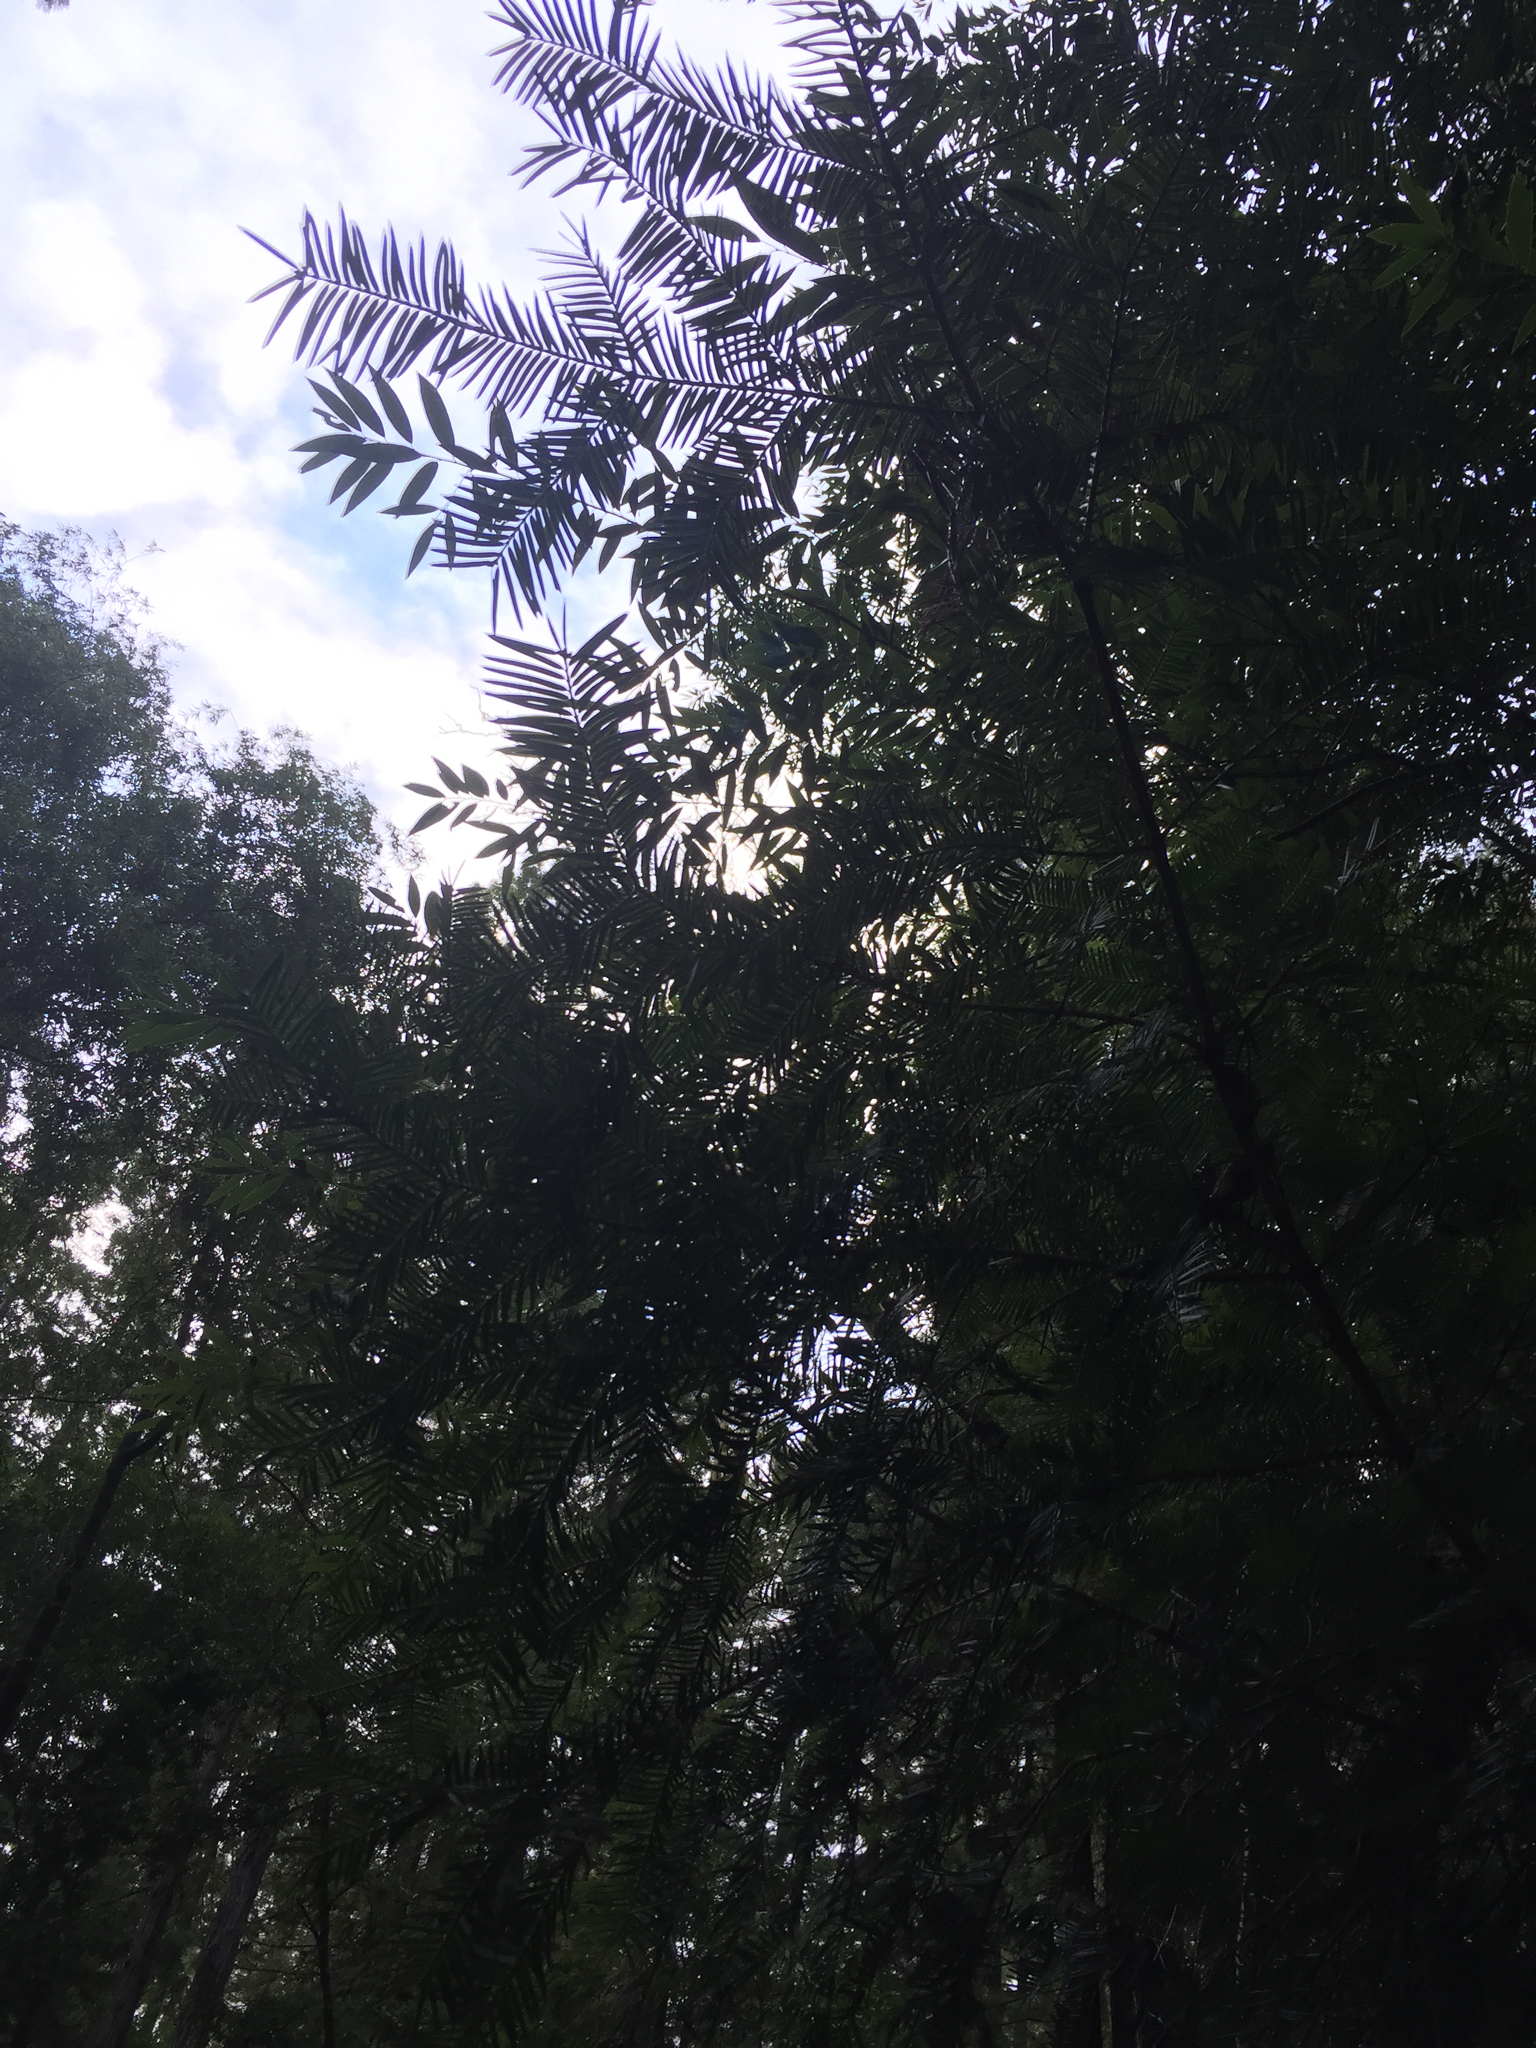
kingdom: Plantae
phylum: Tracheophyta
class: Pinopsida
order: Pinales
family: Taxaceae
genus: Torreya
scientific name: Torreya californica
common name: California torreya
